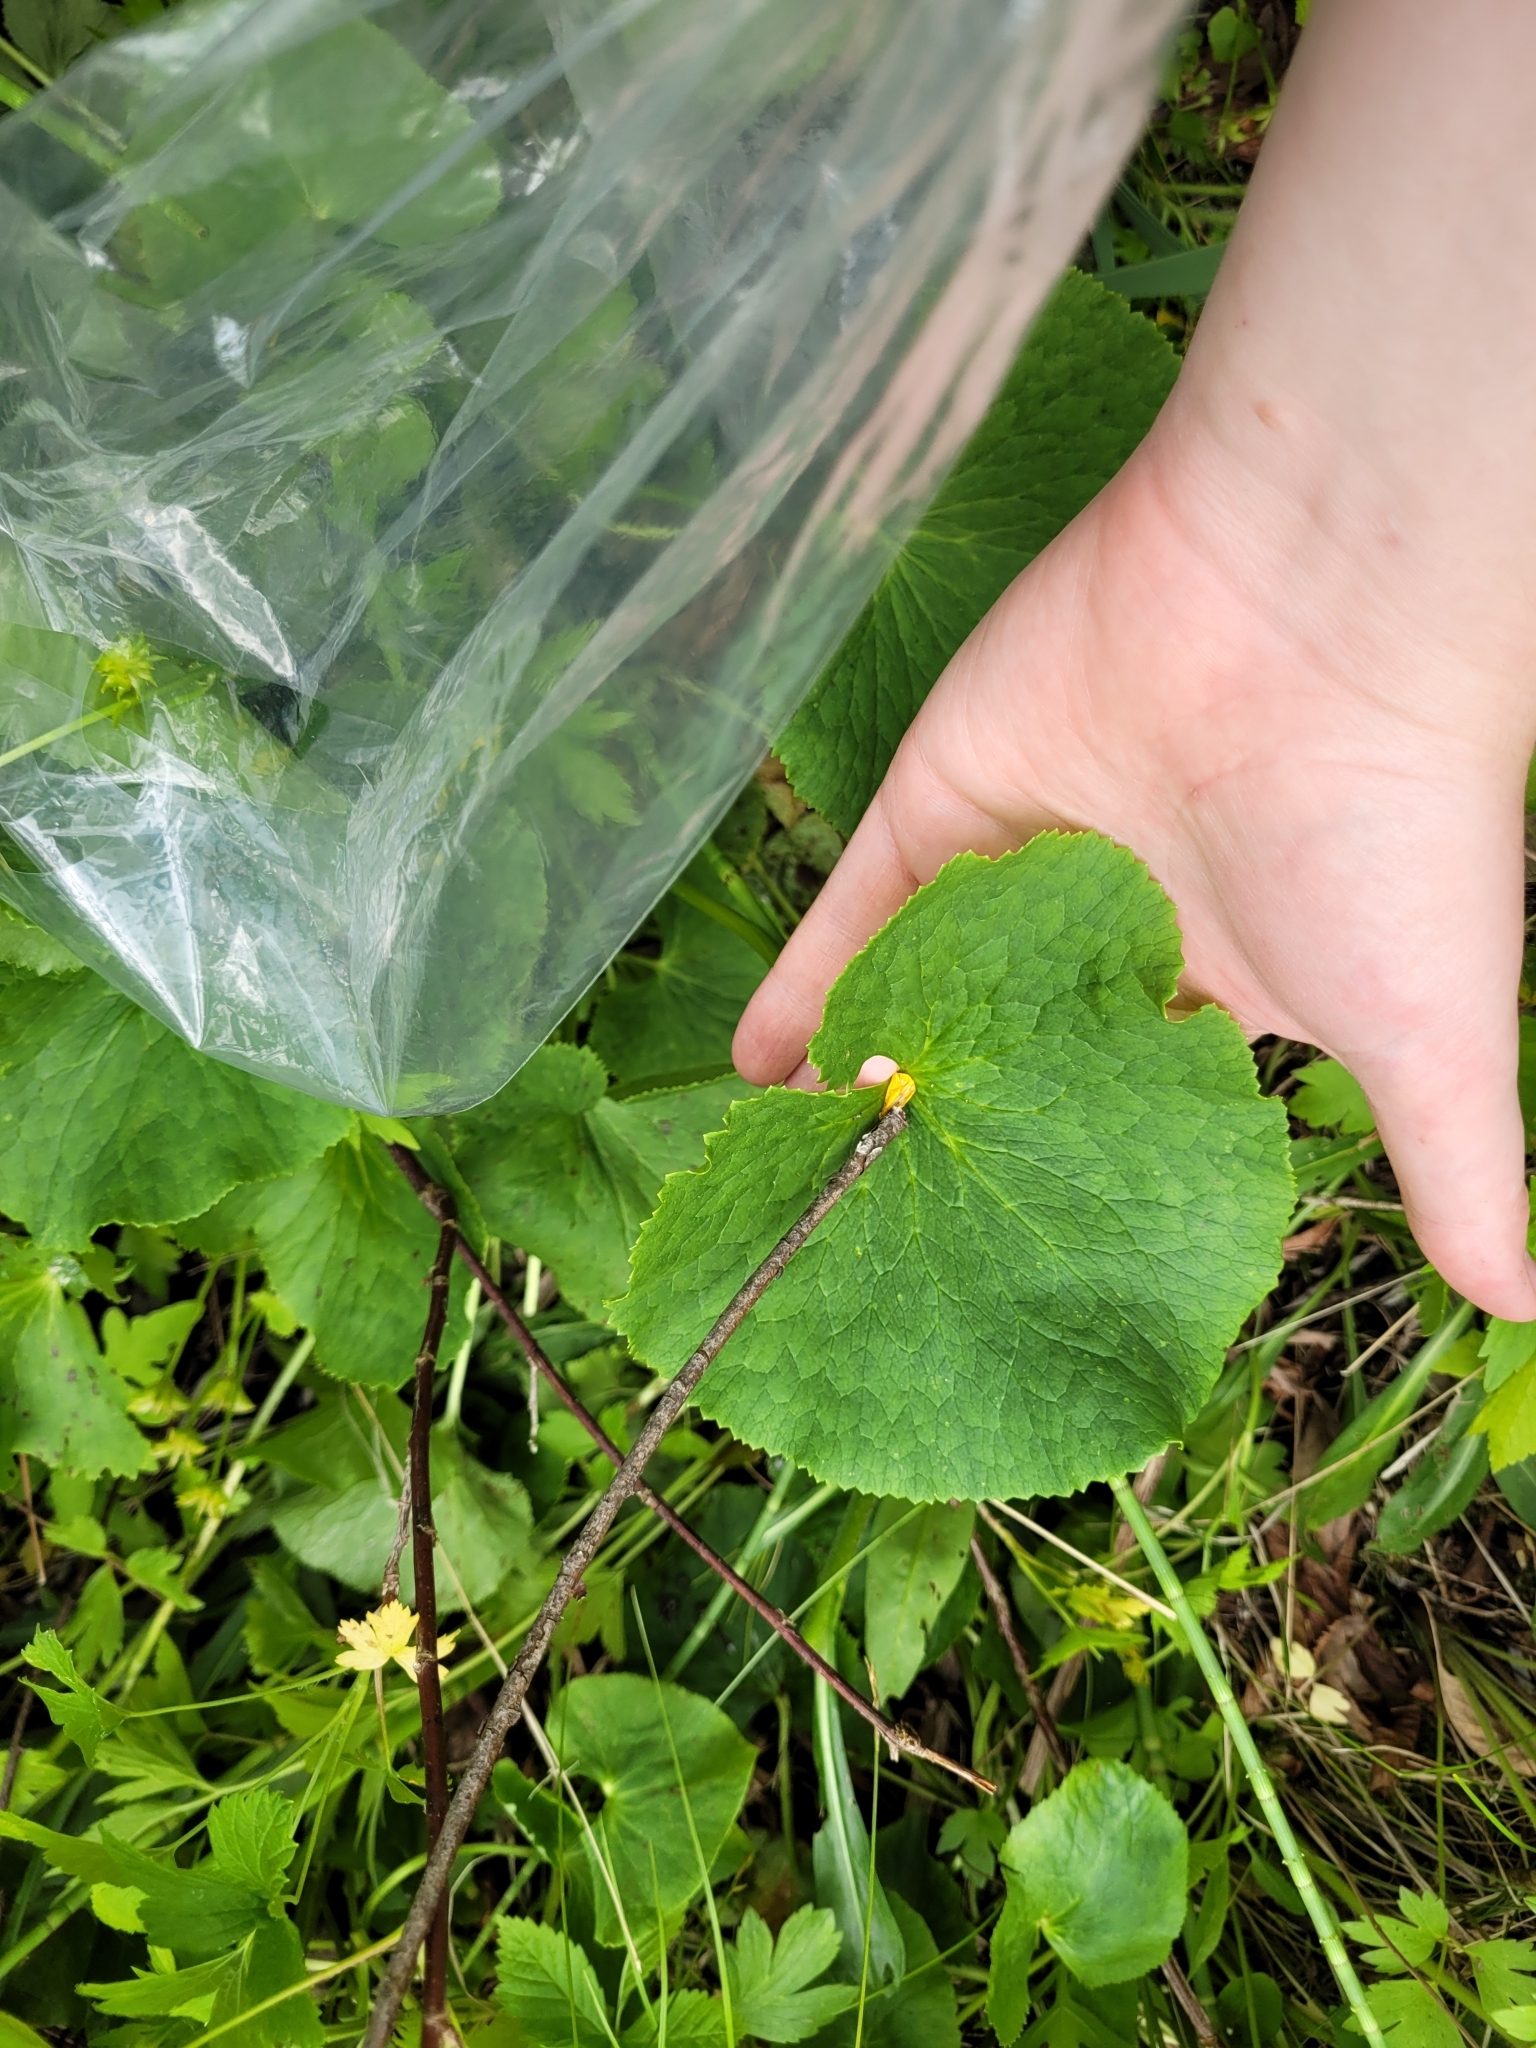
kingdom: Plantae
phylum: Tracheophyta
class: Magnoliopsida
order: Ranunculales
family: Ranunculaceae
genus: Caltha
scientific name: Caltha palustris
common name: Marsh marigold
